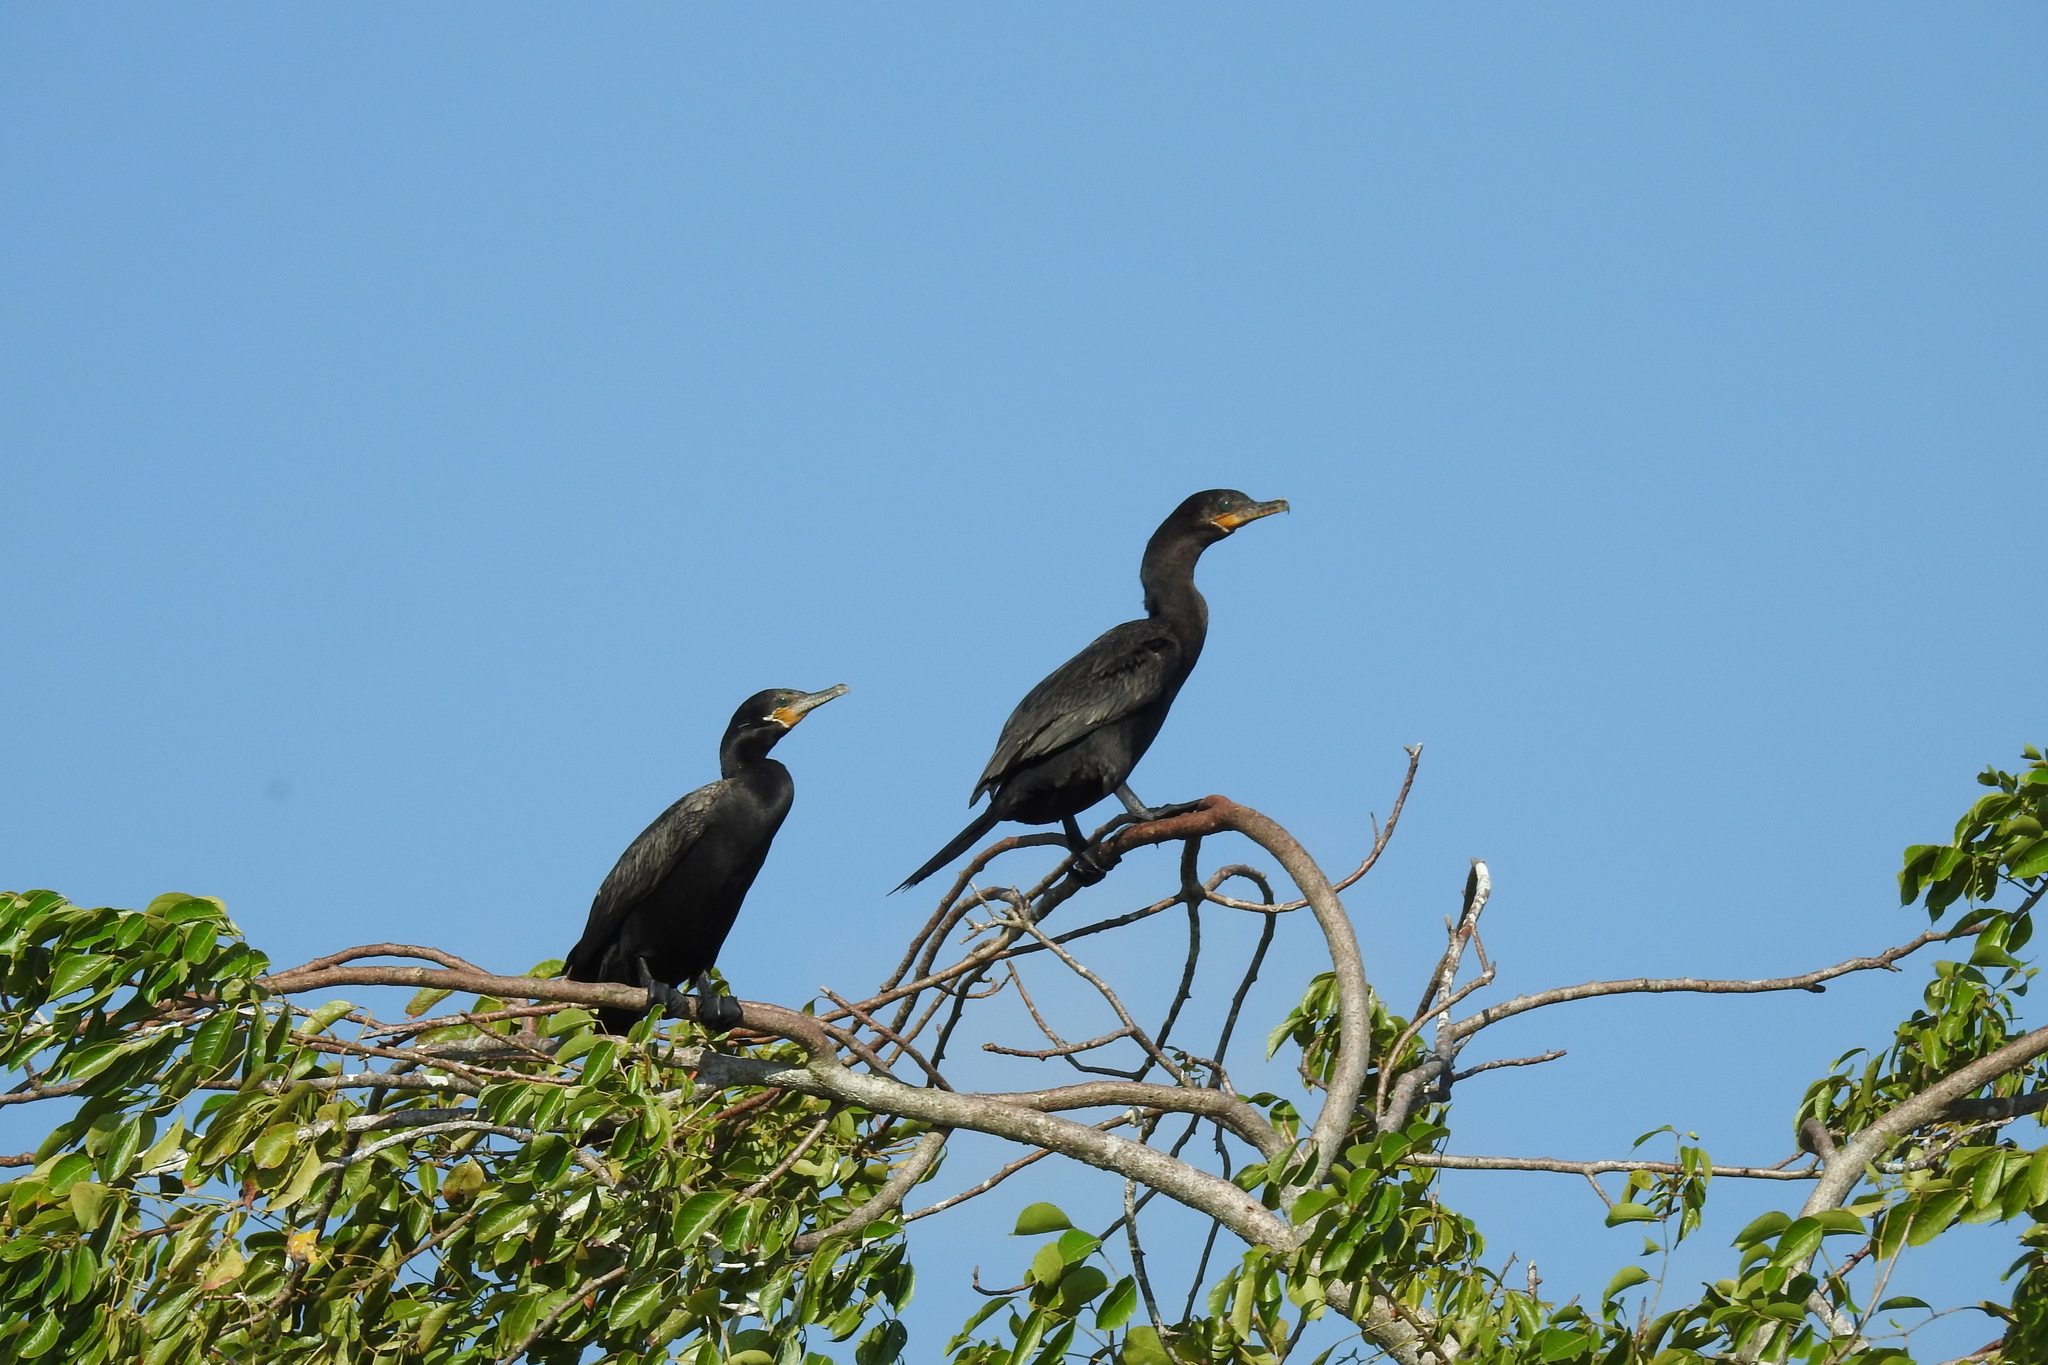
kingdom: Animalia
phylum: Chordata
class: Aves
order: Suliformes
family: Phalacrocoracidae
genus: Phalacrocorax
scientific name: Phalacrocorax brasilianus
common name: Neotropic cormorant
